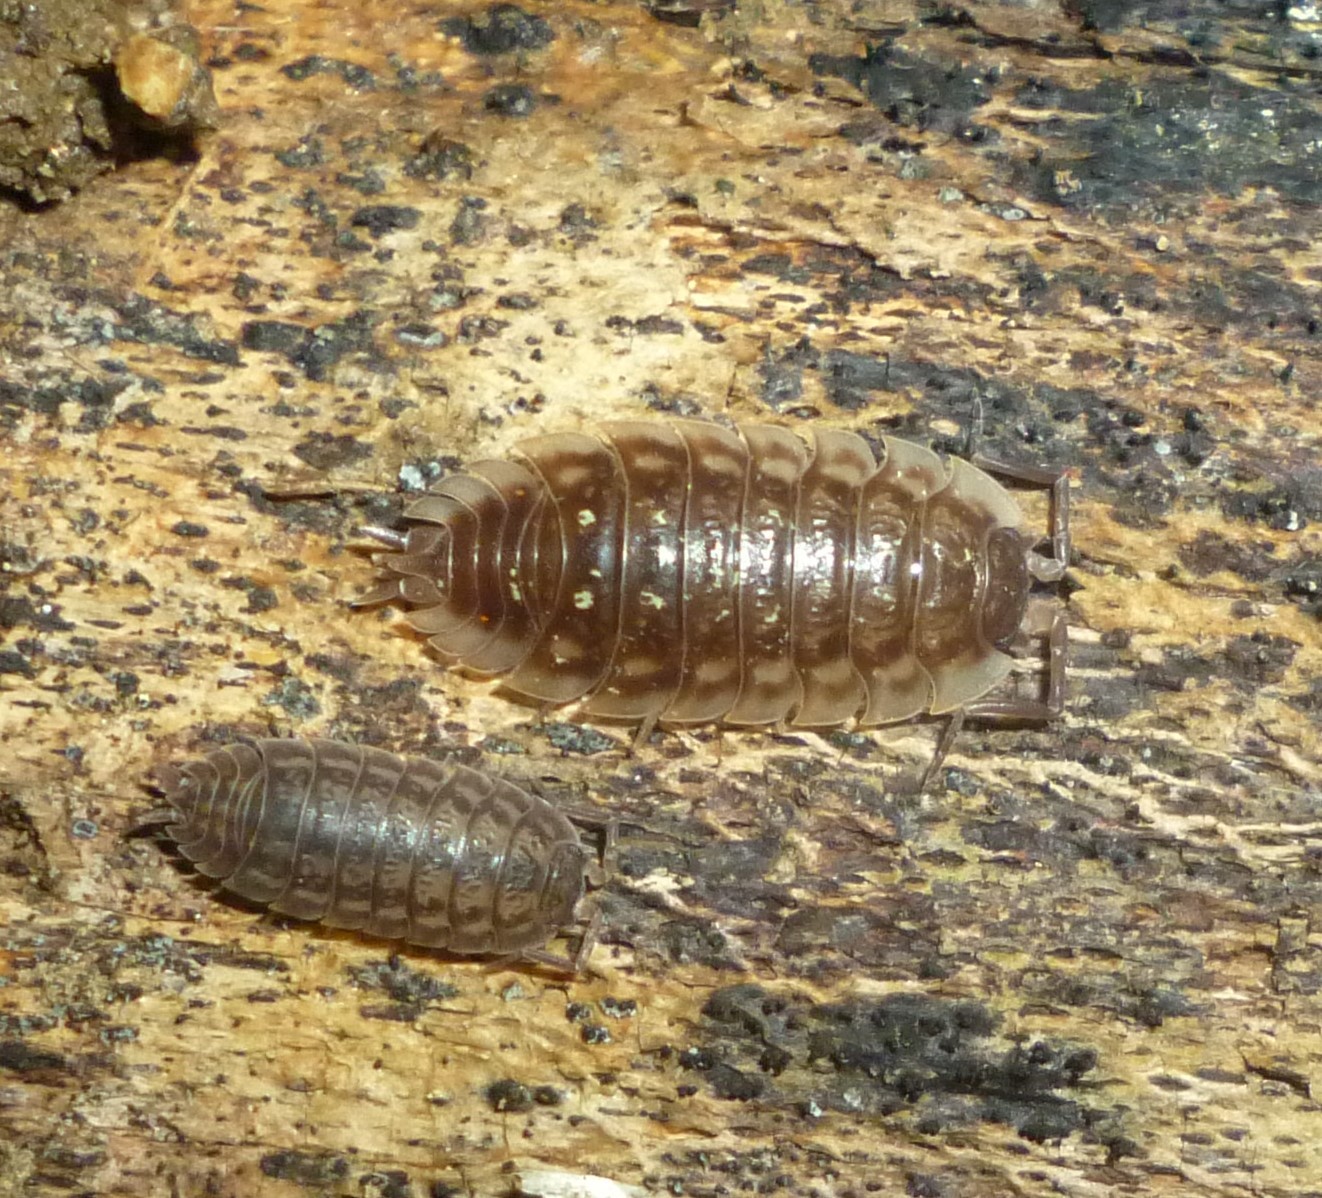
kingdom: Animalia
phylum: Arthropoda
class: Malacostraca
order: Isopoda
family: Oniscidae
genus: Oniscus
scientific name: Oniscus asellus
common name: Common shiny woodlouse
